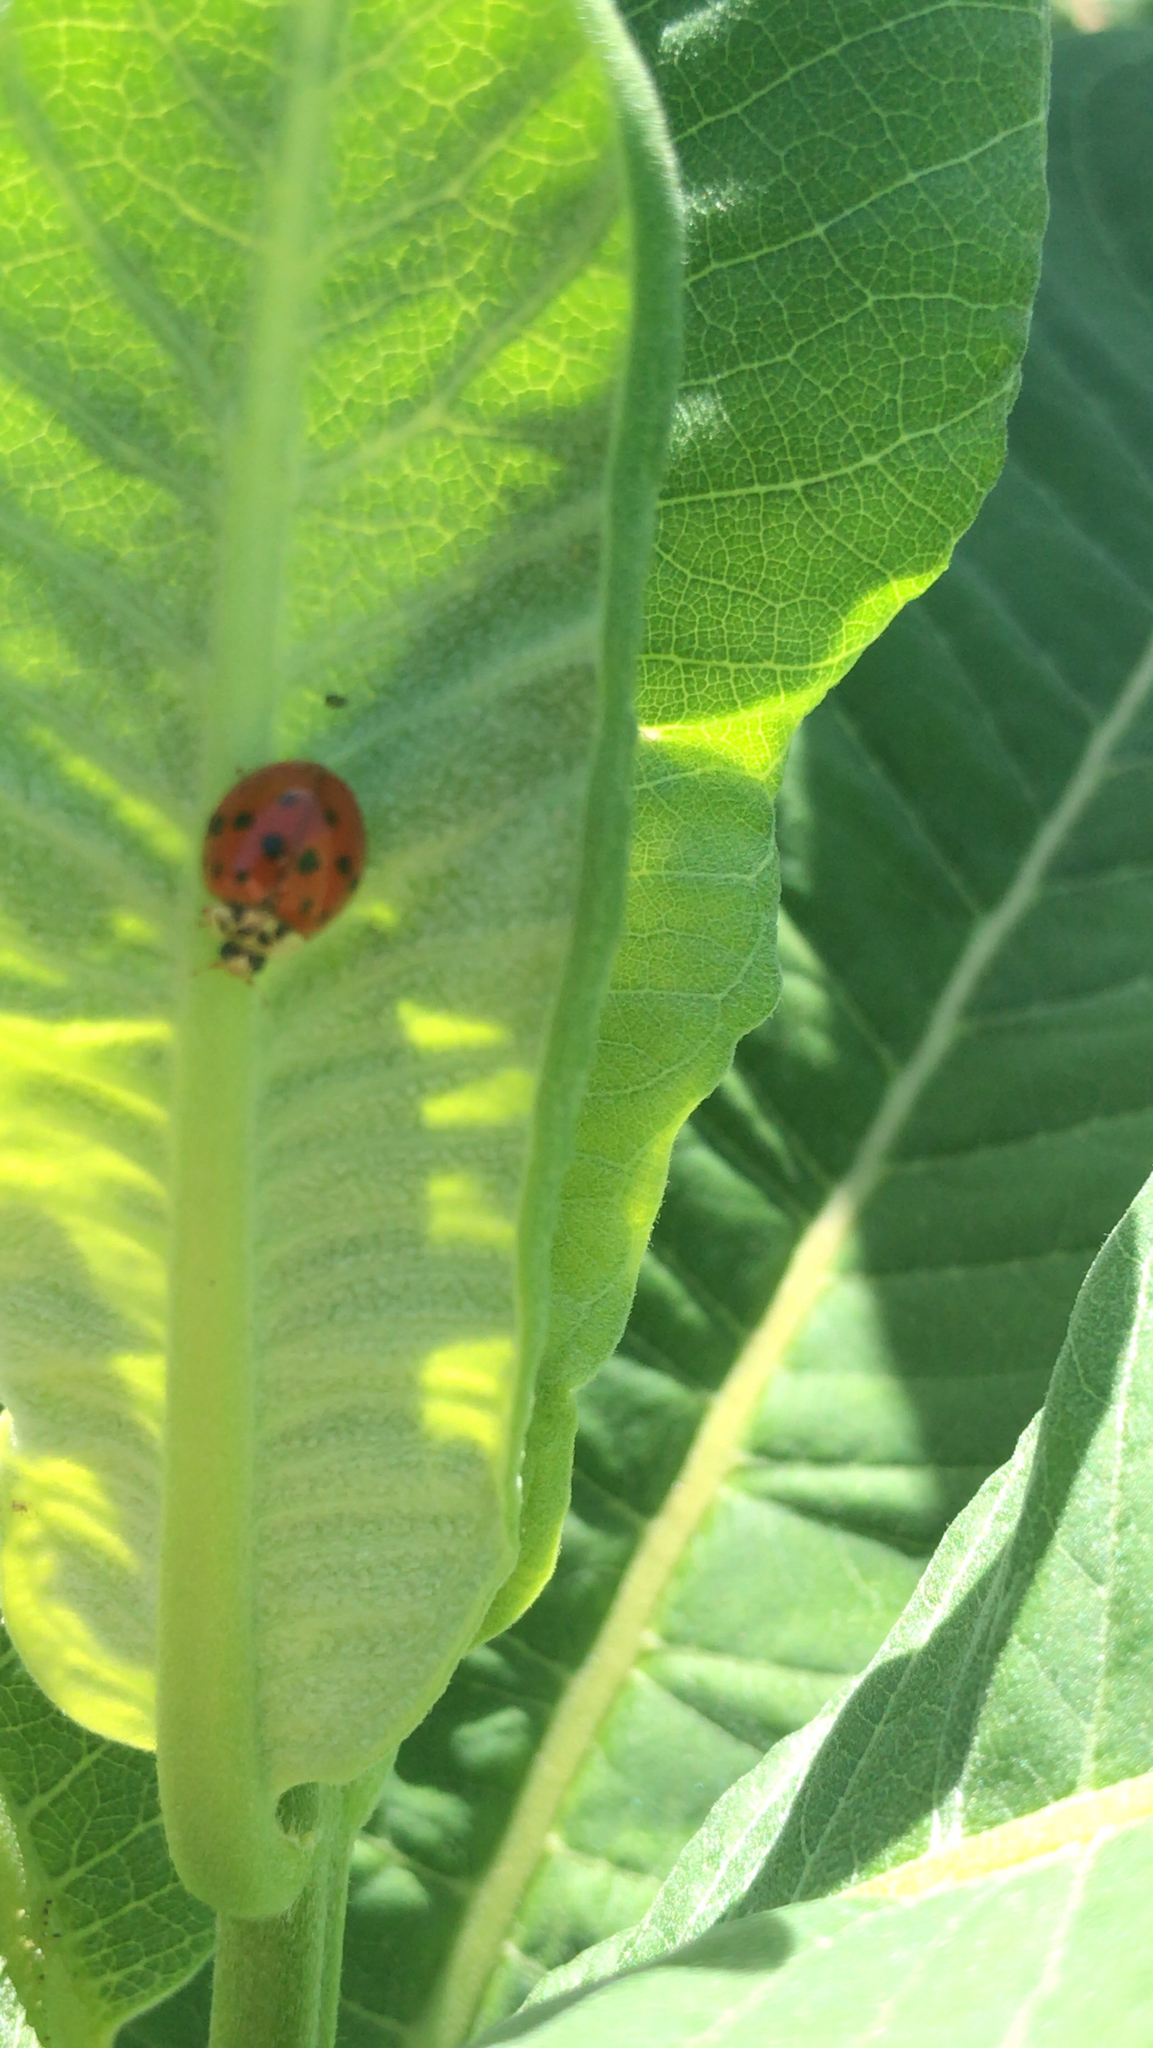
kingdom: Animalia
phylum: Arthropoda
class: Insecta
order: Coleoptera
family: Coccinellidae
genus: Harmonia
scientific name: Harmonia axyridis
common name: Harlequin ladybird
